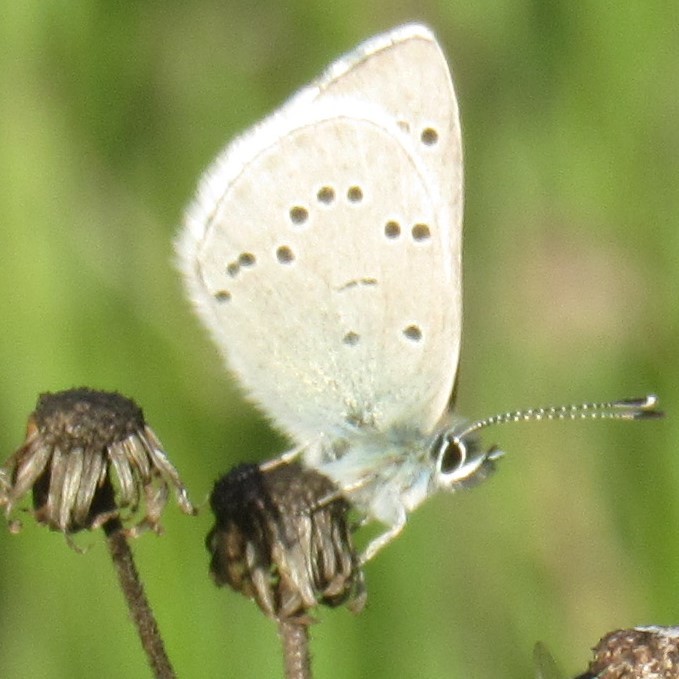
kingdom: Animalia
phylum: Arthropoda
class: Insecta
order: Lepidoptera
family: Lycaenidae
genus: Glaucopsyche
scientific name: Glaucopsyche lygdamus
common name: Silvery blue
